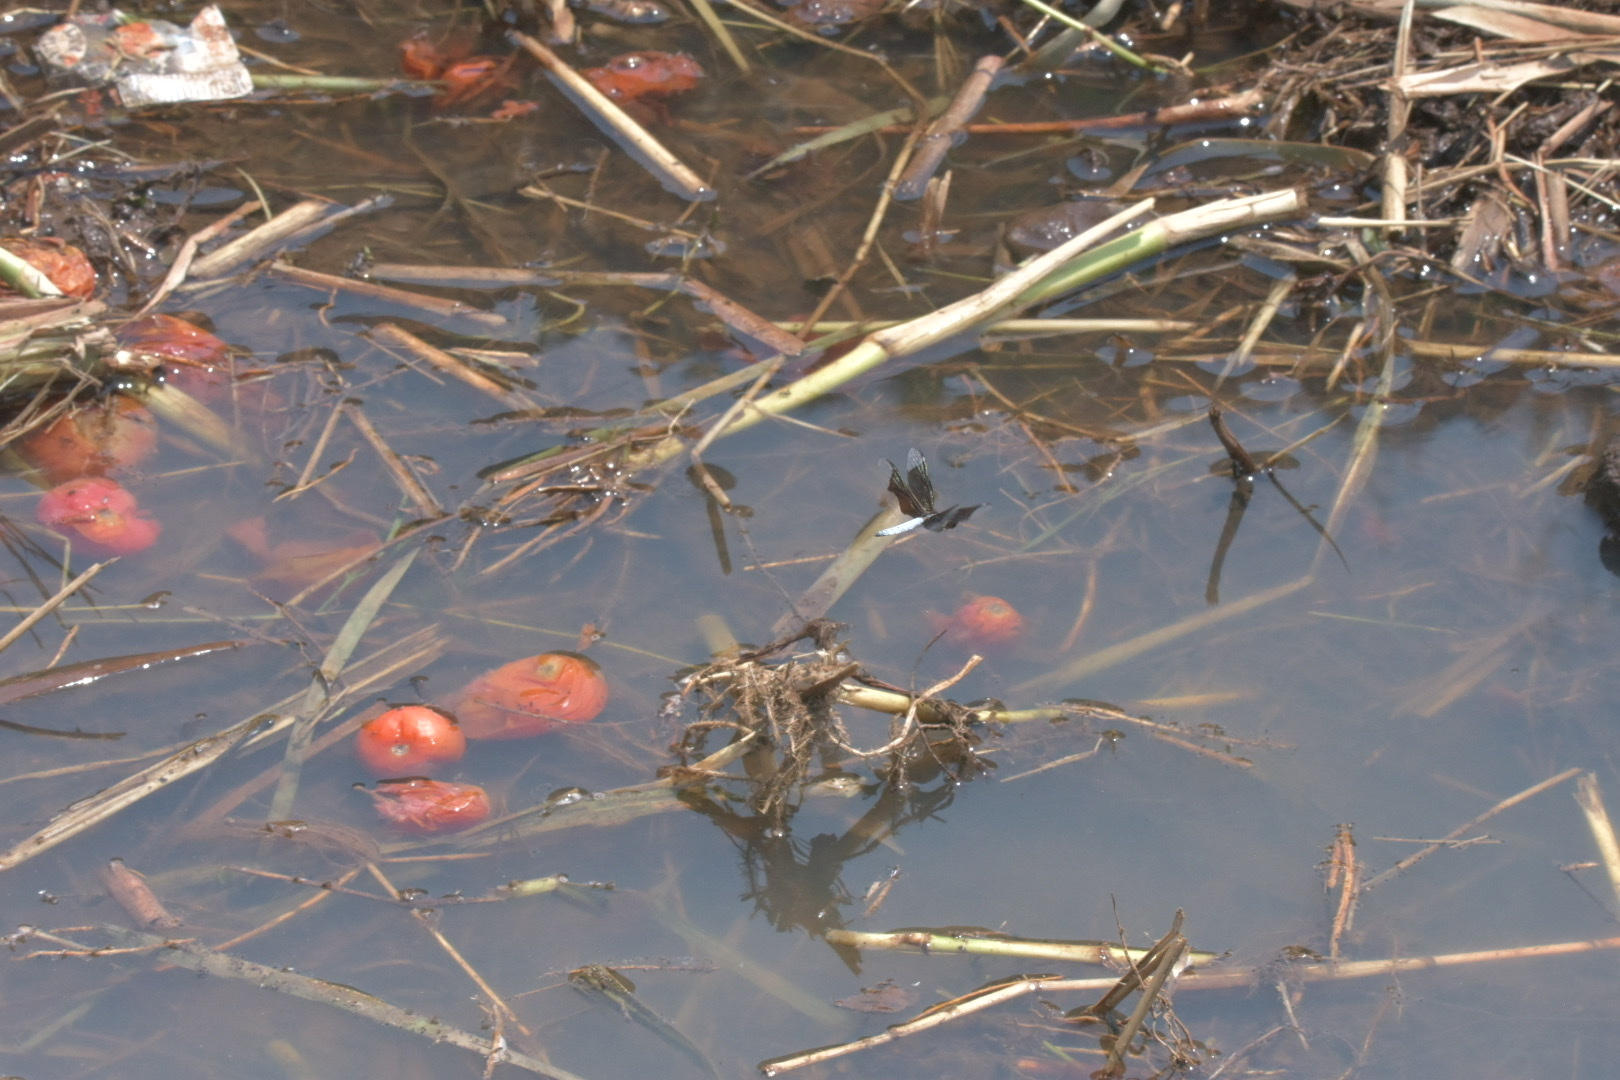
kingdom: Animalia
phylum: Arthropoda
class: Insecta
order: Odonata
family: Libellulidae
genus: Palpopleura
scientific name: Palpopleura lucia
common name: Lucia widow
